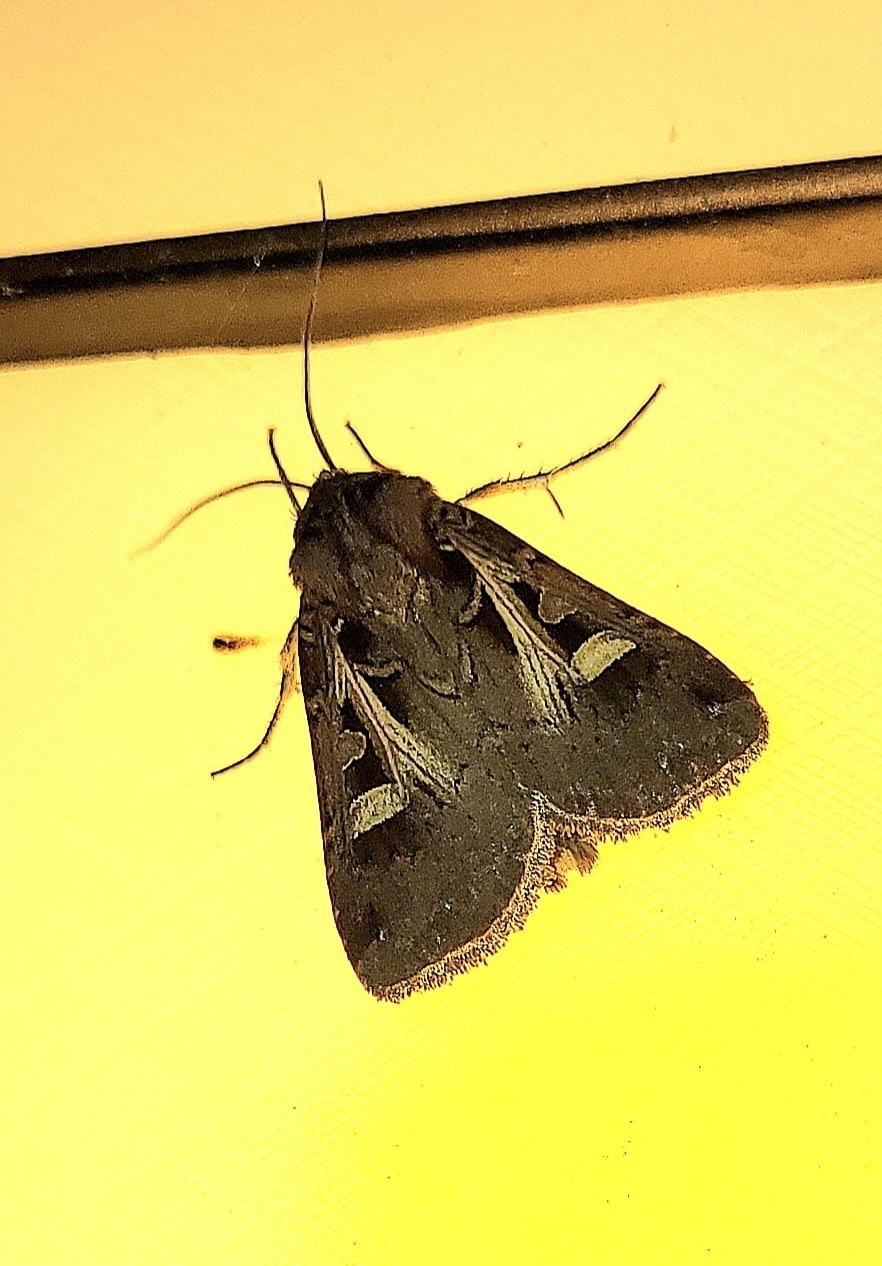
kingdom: Animalia
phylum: Arthropoda
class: Insecta
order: Lepidoptera
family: Noctuidae
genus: Feltia
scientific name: Feltia herilis
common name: Master's dart
